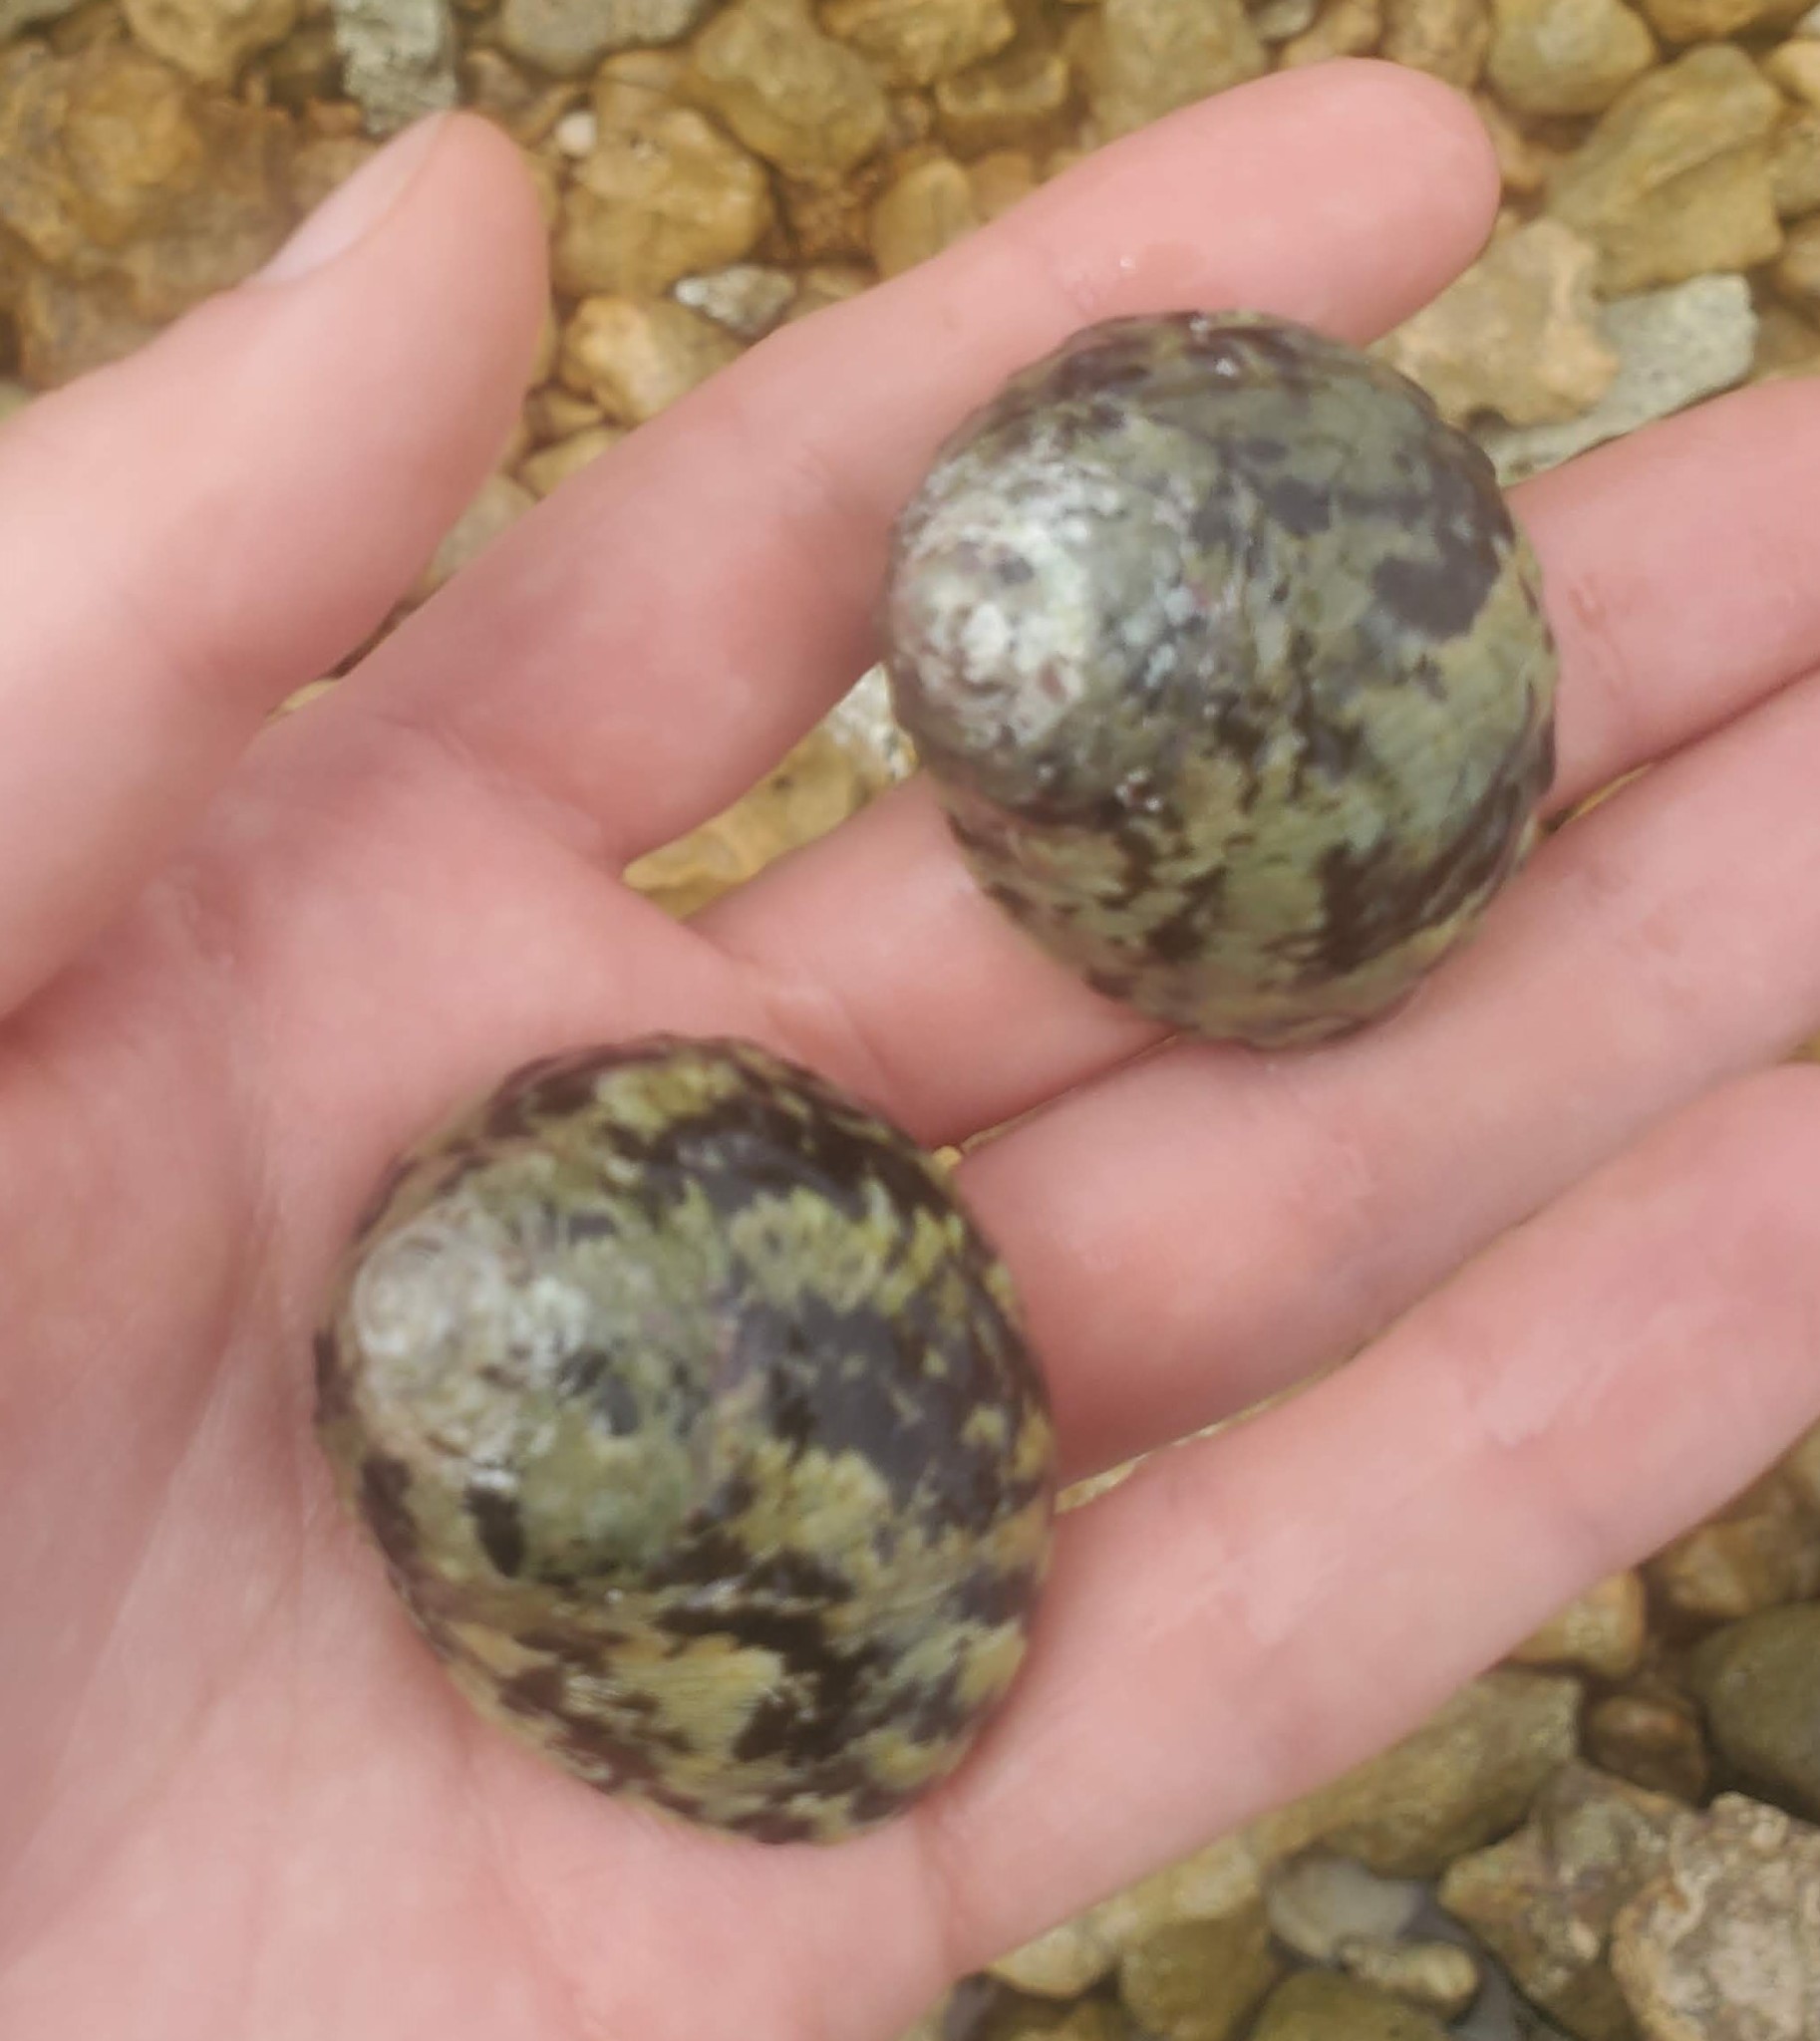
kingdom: Animalia
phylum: Mollusca
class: Gastropoda
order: Trochida
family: Tegulidae
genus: Cittarium
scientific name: Cittarium pica
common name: West indian topshell
